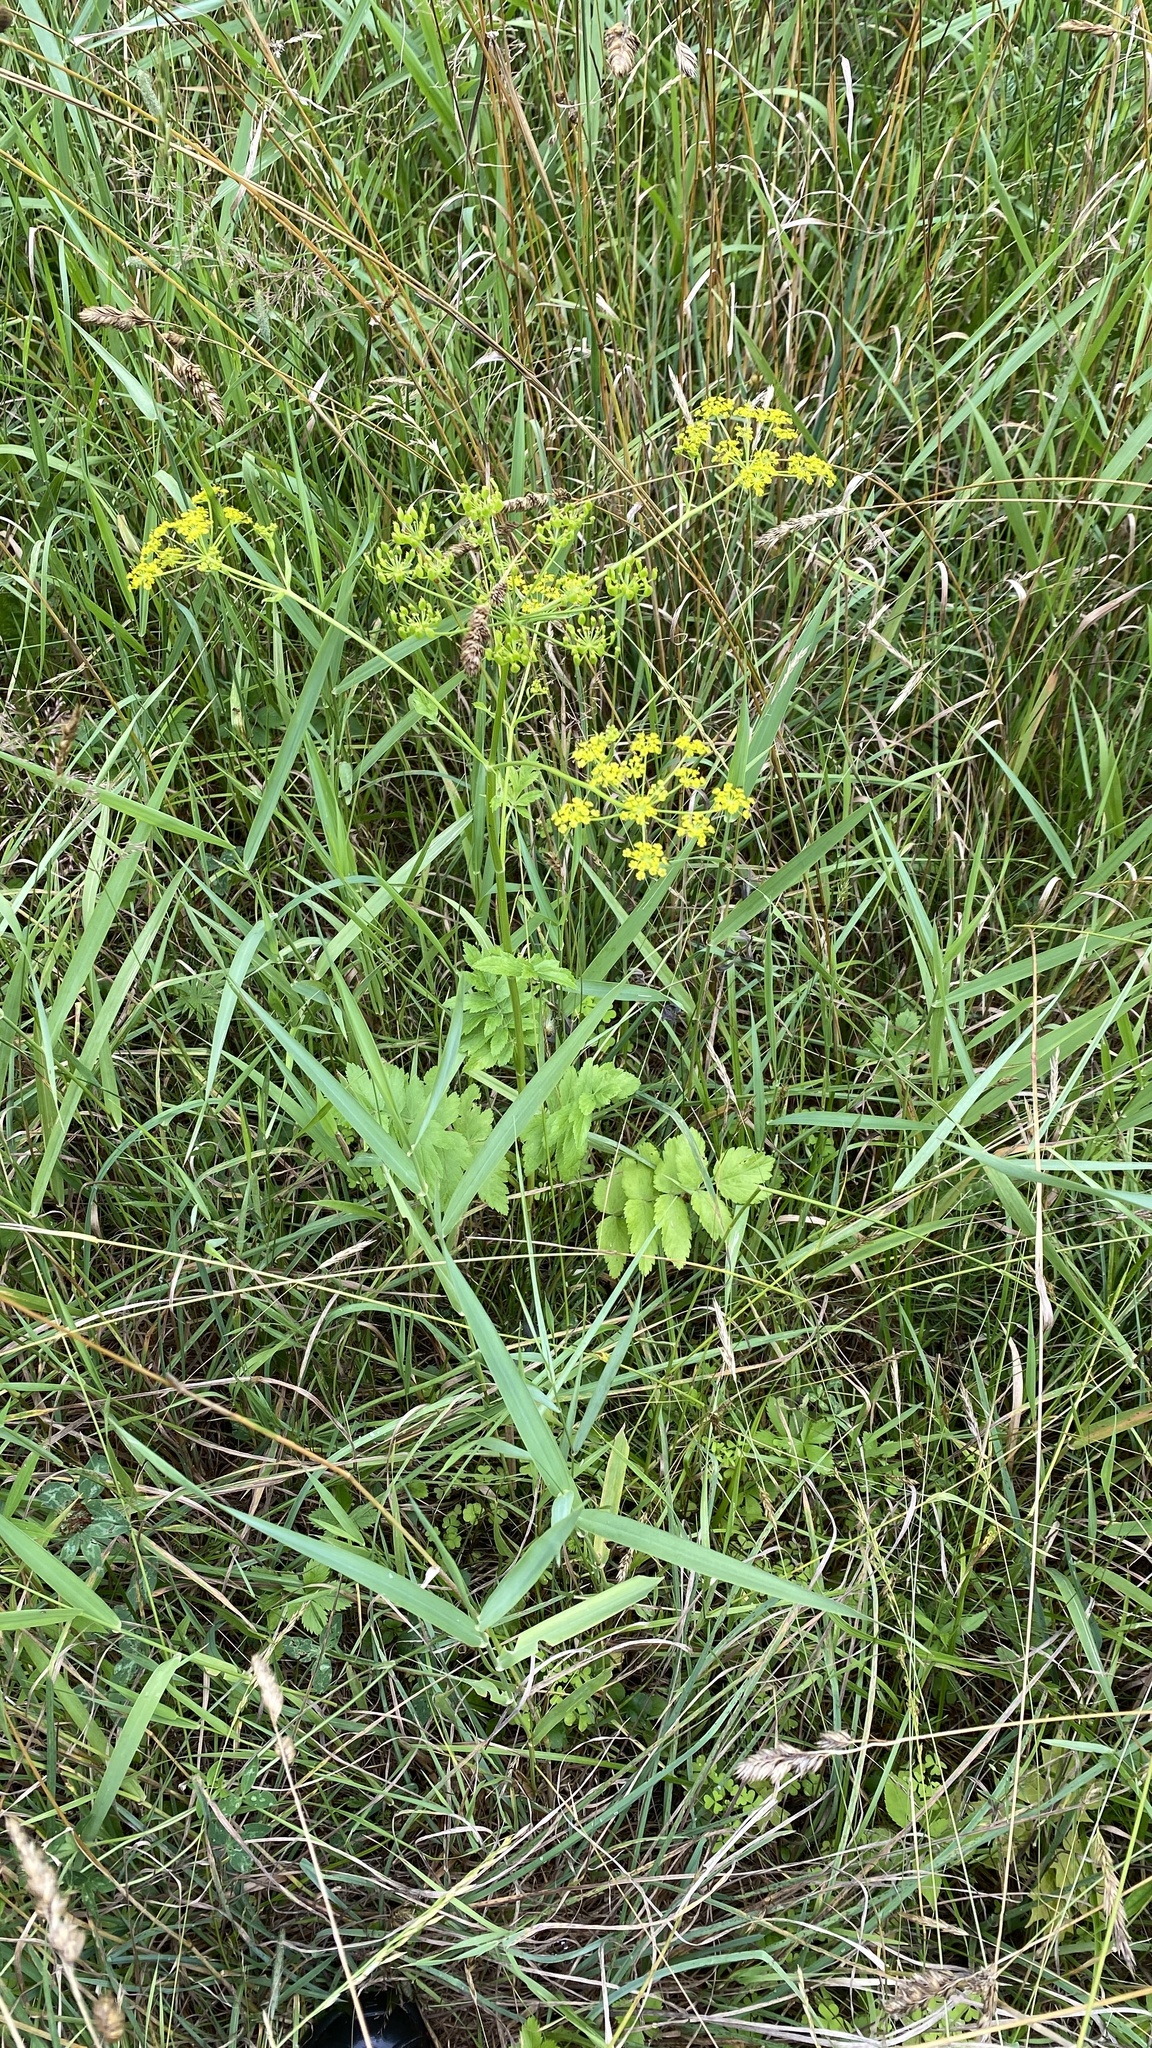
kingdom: Plantae
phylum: Tracheophyta
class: Magnoliopsida
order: Apiales
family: Apiaceae
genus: Pastinaca
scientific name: Pastinaca sativa
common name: Wild parsnip
